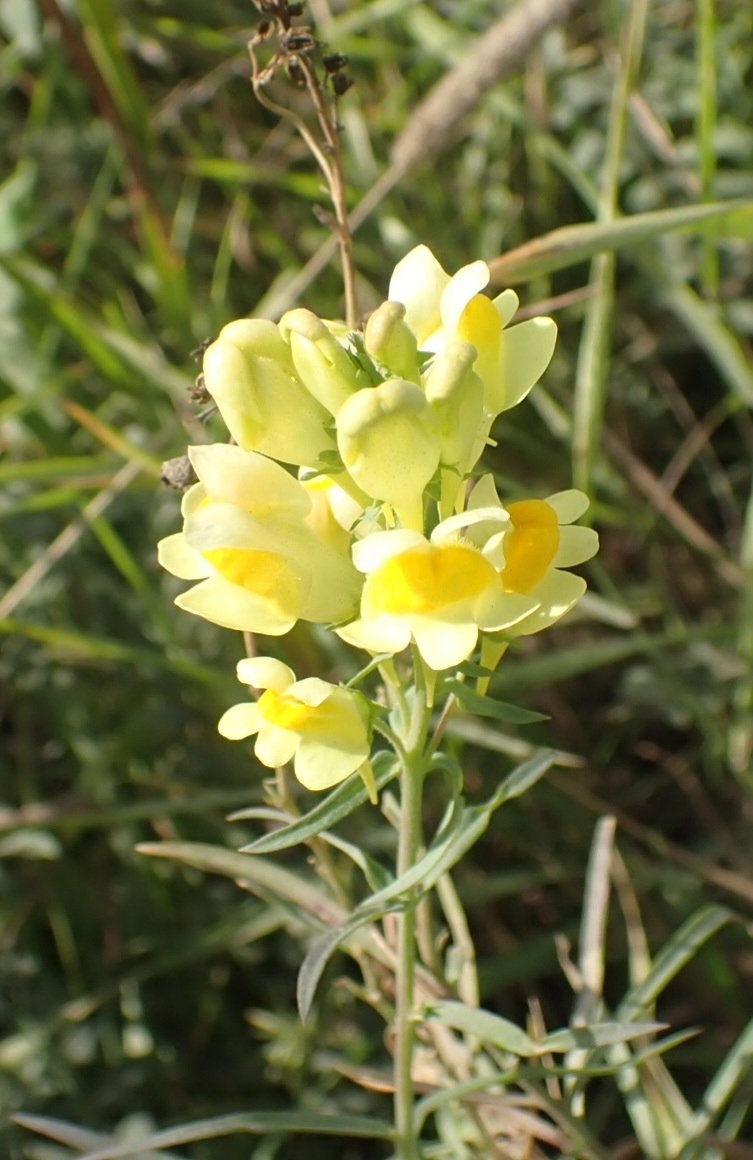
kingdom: Plantae
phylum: Tracheophyta
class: Magnoliopsida
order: Lamiales
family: Plantaginaceae
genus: Linaria
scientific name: Linaria vulgaris
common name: Butter and eggs
